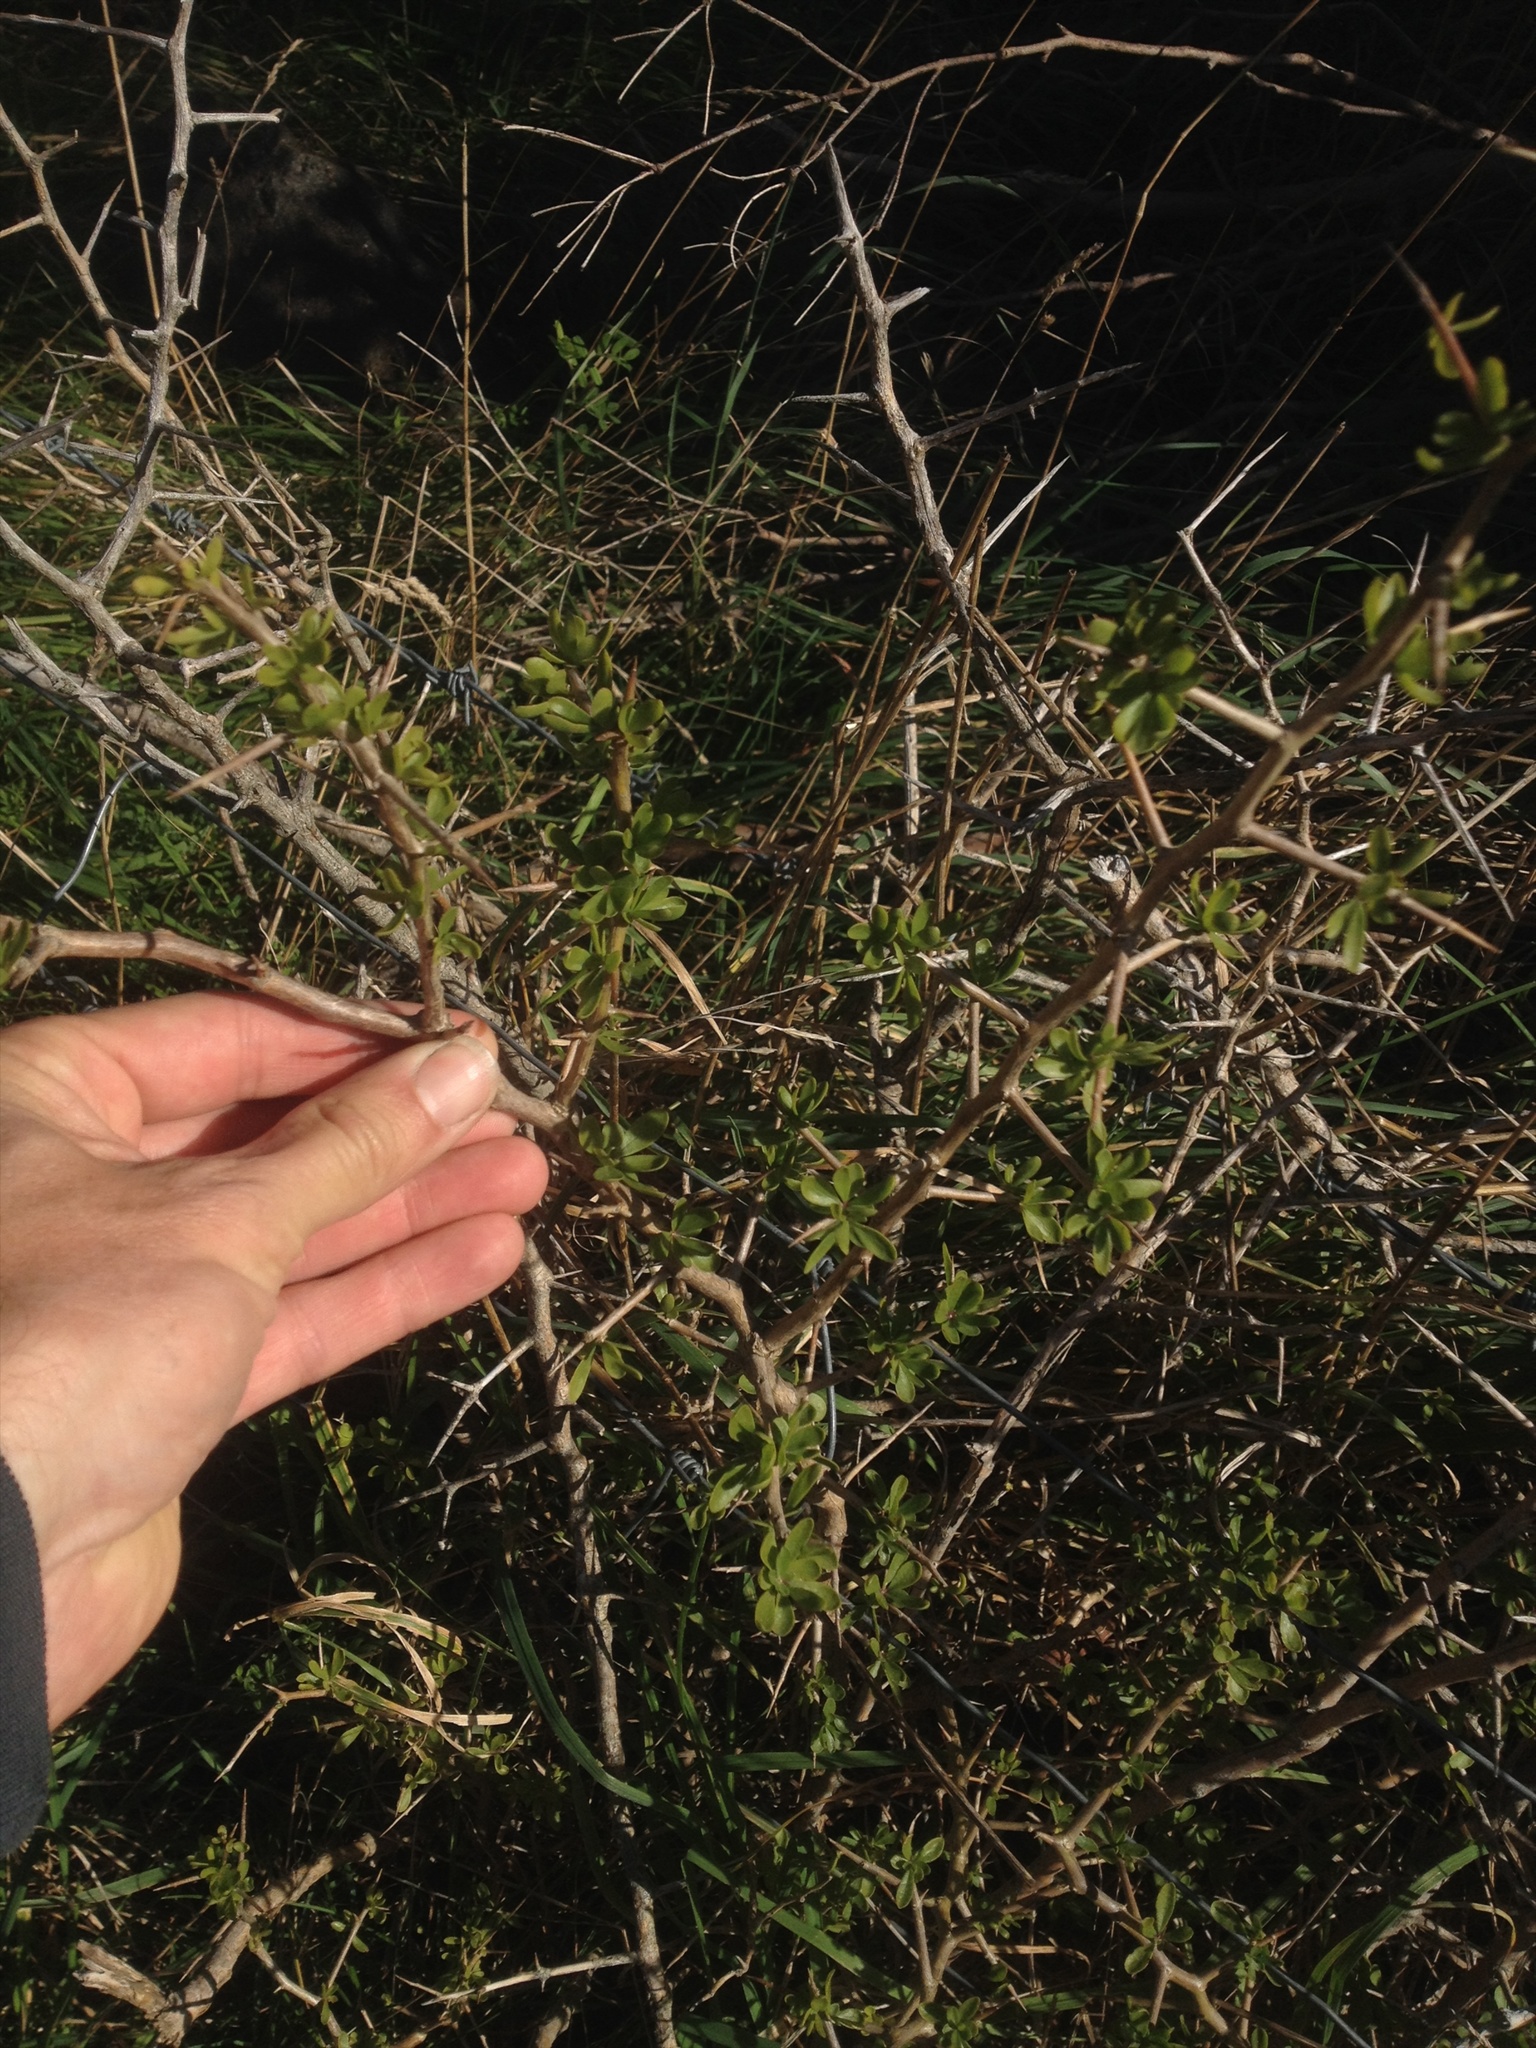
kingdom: Plantae
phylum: Tracheophyta
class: Magnoliopsida
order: Solanales
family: Solanaceae
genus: Lycium
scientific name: Lycium ferocissimum
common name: African boxthorn
